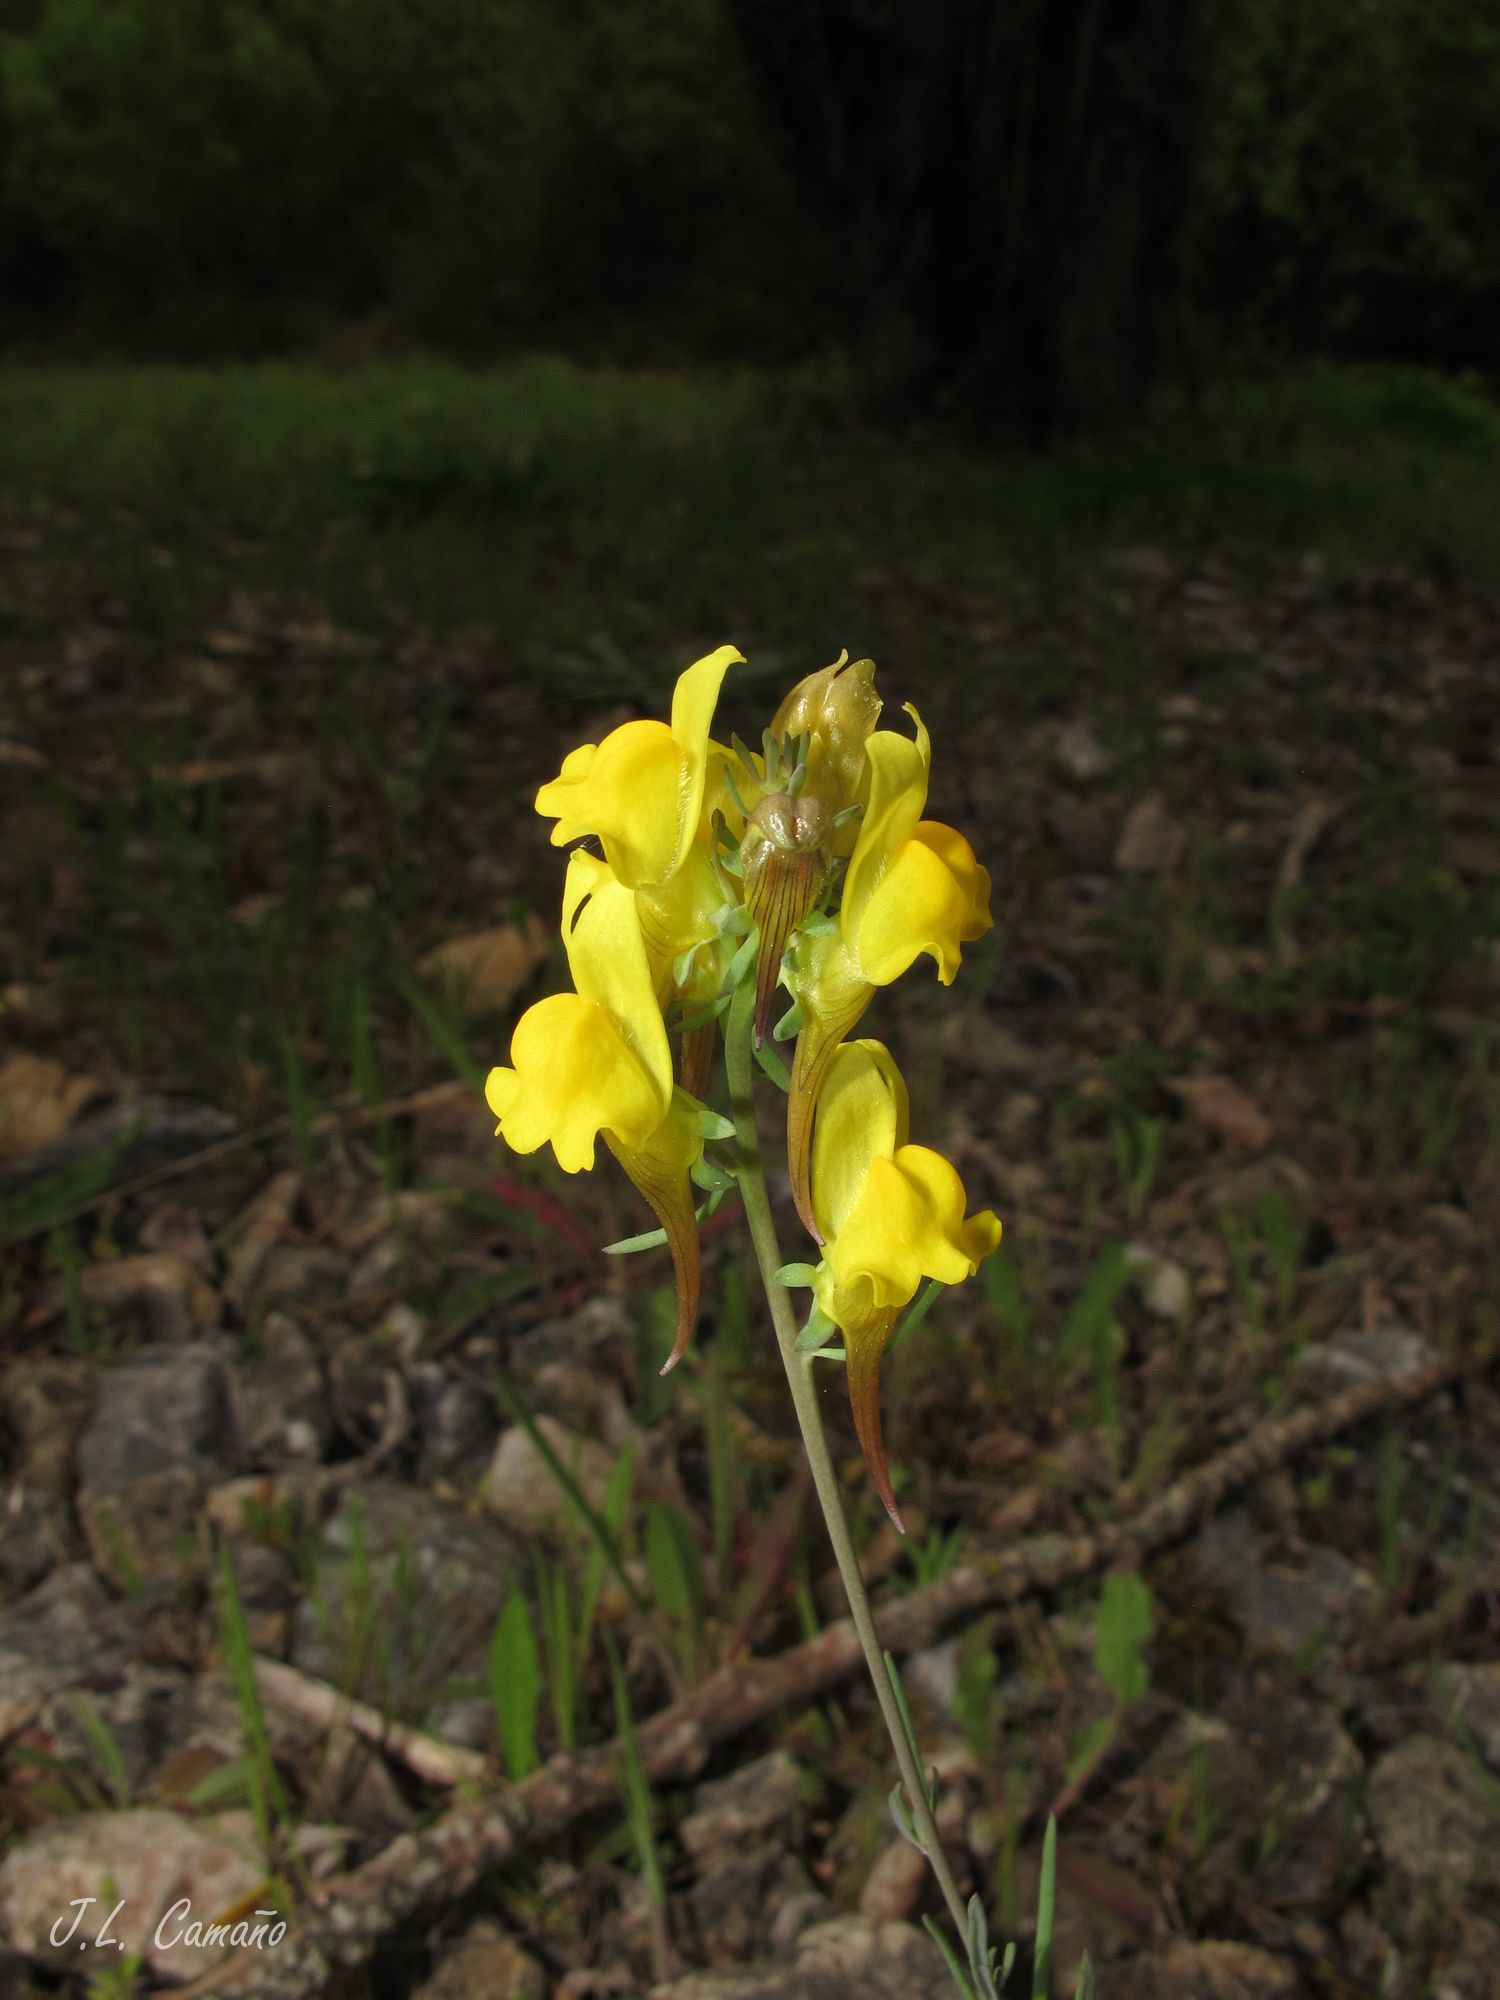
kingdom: Plantae
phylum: Tracheophyta
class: Magnoliopsida
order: Lamiales
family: Plantaginaceae
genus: Linaria
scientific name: Linaria supina
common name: Prostrate toadflax
